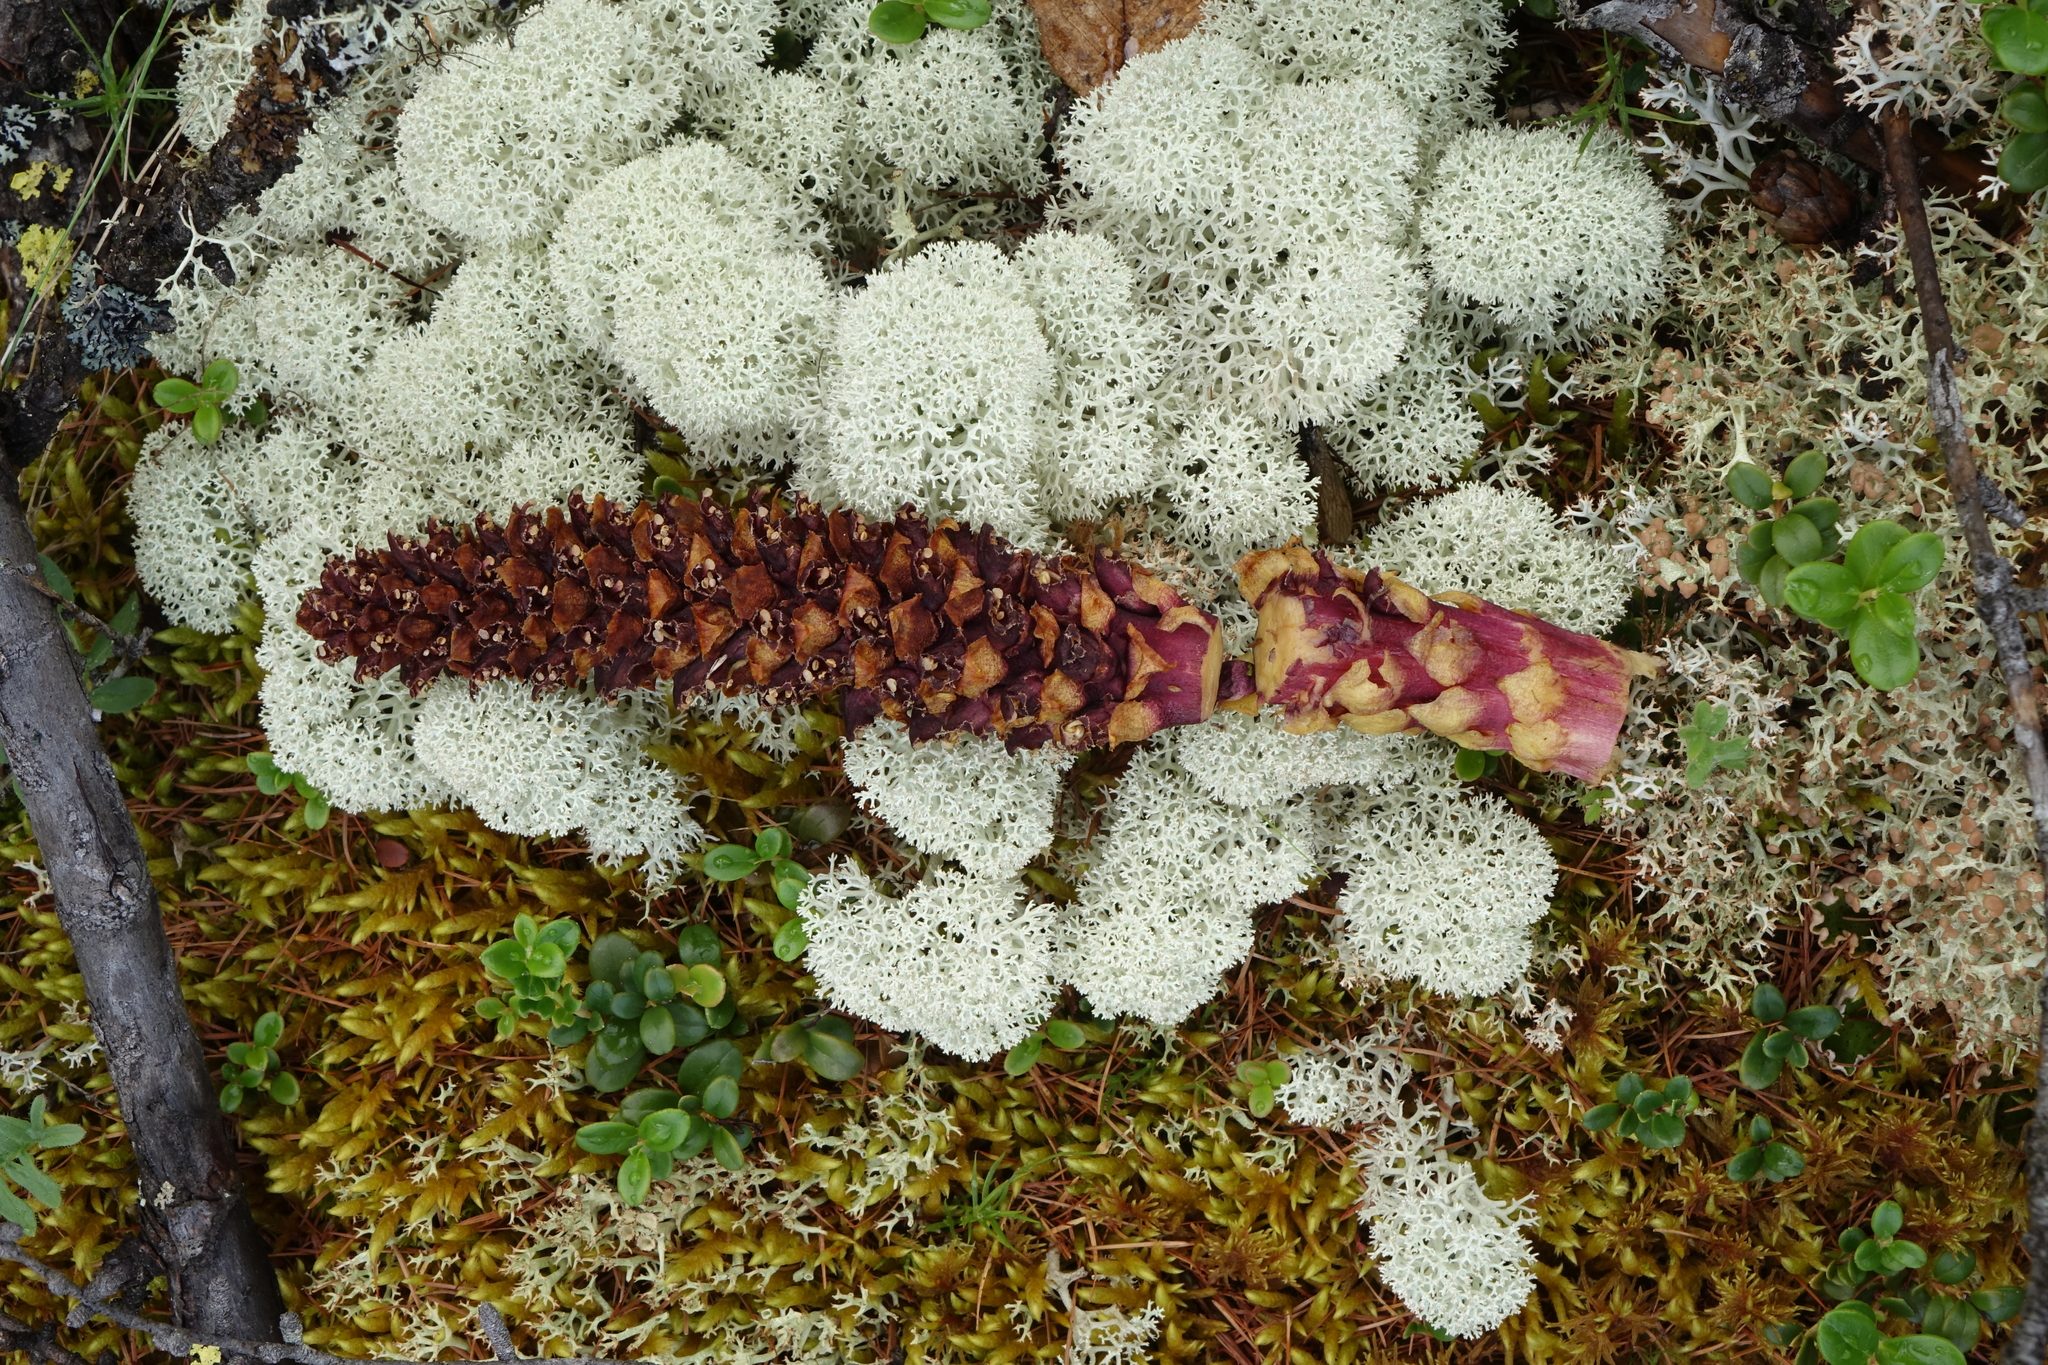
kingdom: Plantae
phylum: Tracheophyta
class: Magnoliopsida
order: Lamiales
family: Orobanchaceae
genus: Boschniakia
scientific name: Boschniakia rossica
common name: Poque
